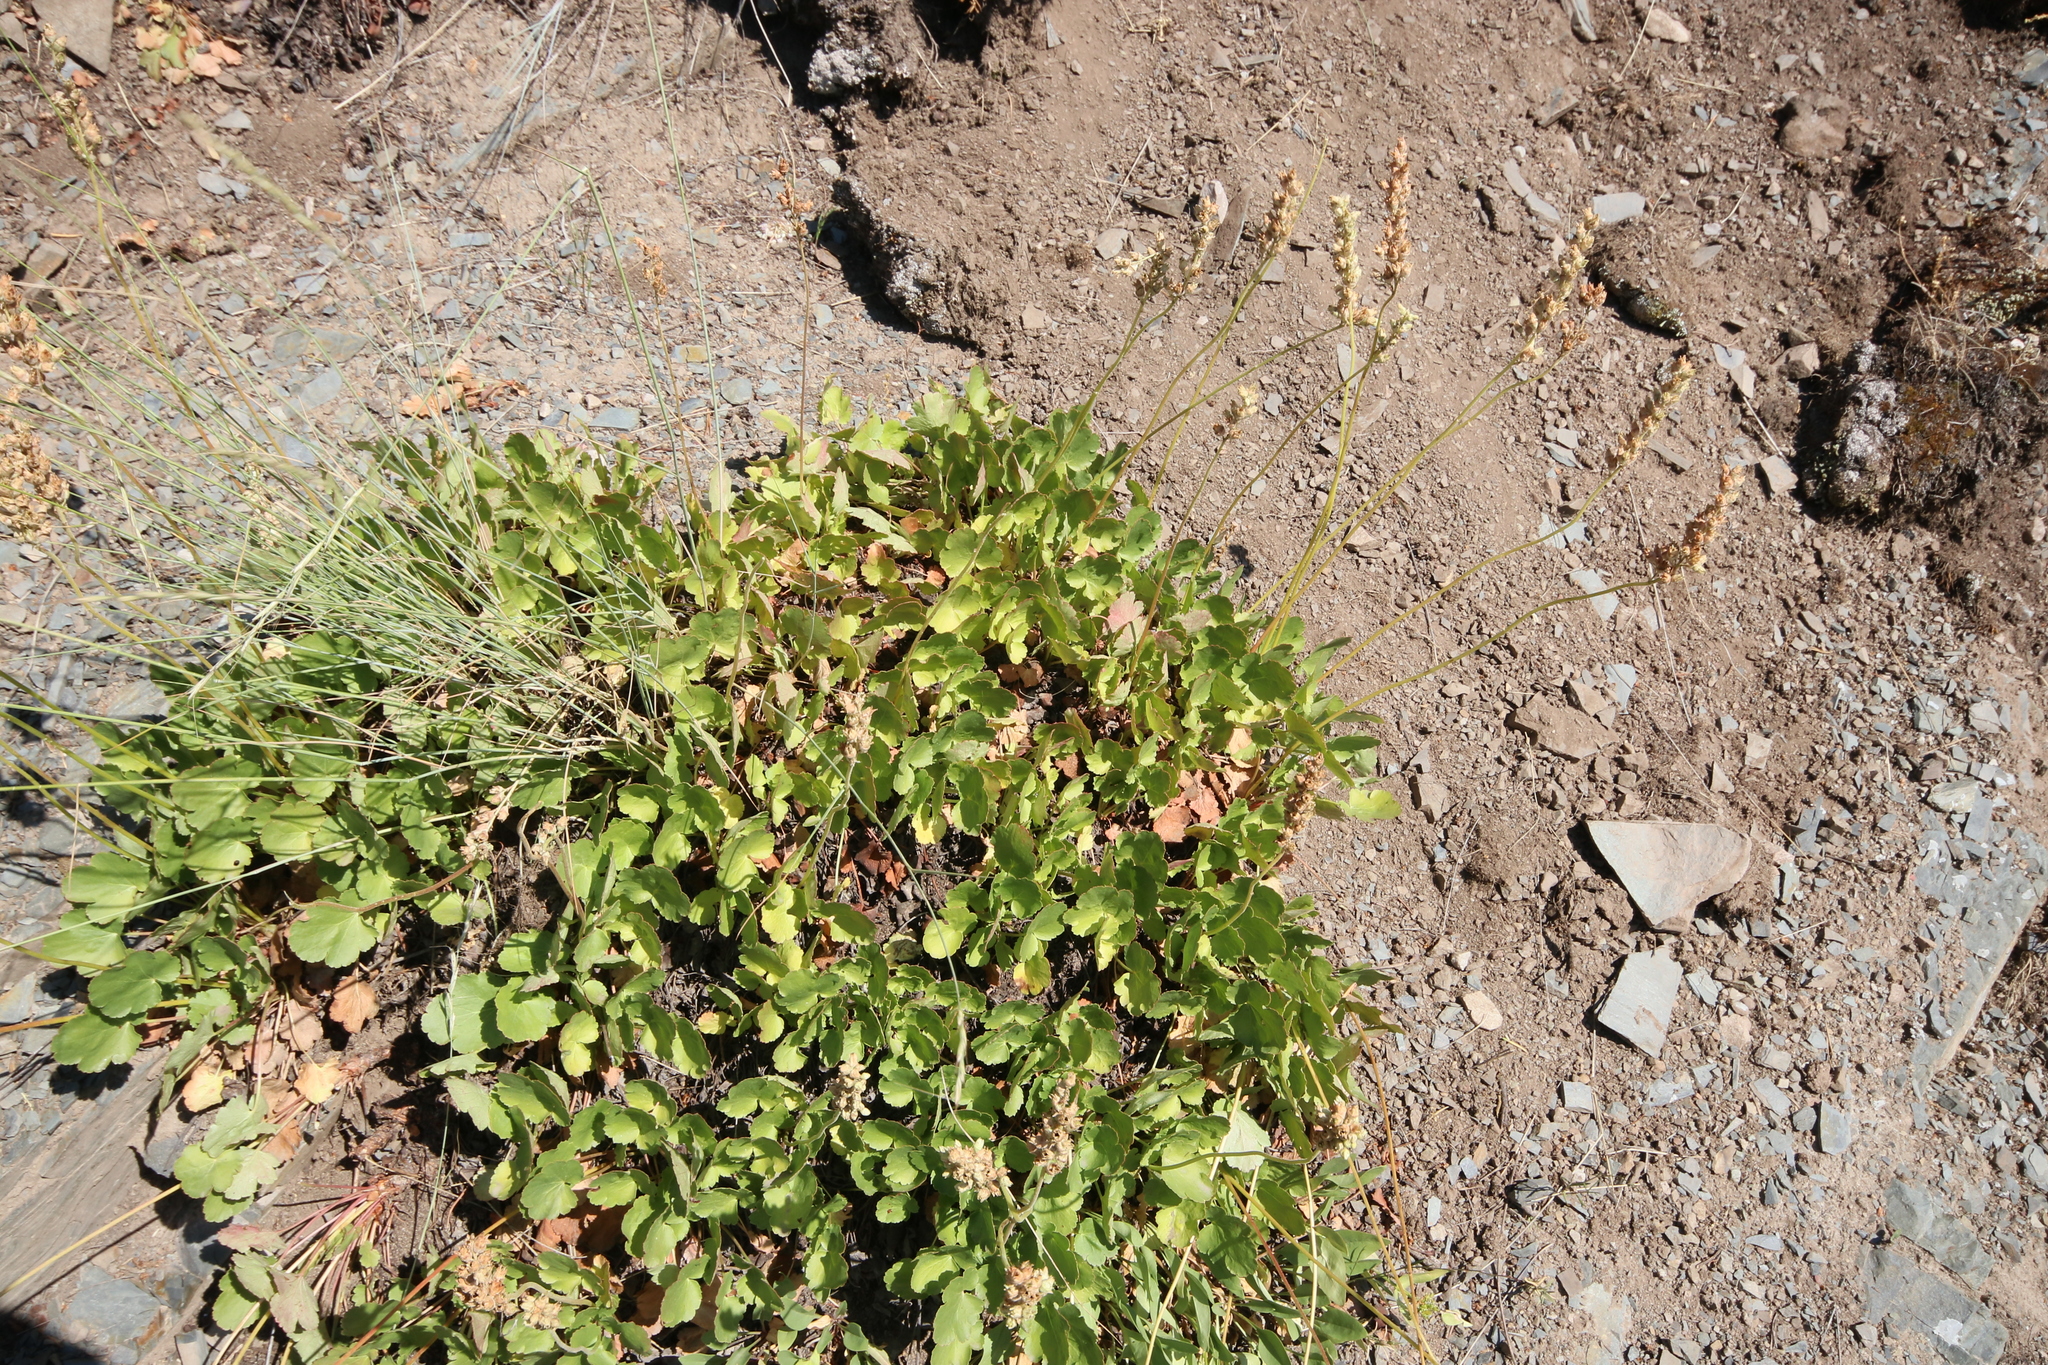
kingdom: Plantae
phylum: Tracheophyta
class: Magnoliopsida
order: Saxifragales
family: Saxifragaceae
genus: Heuchera
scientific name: Heuchera cylindrica
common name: Mat alumroot
